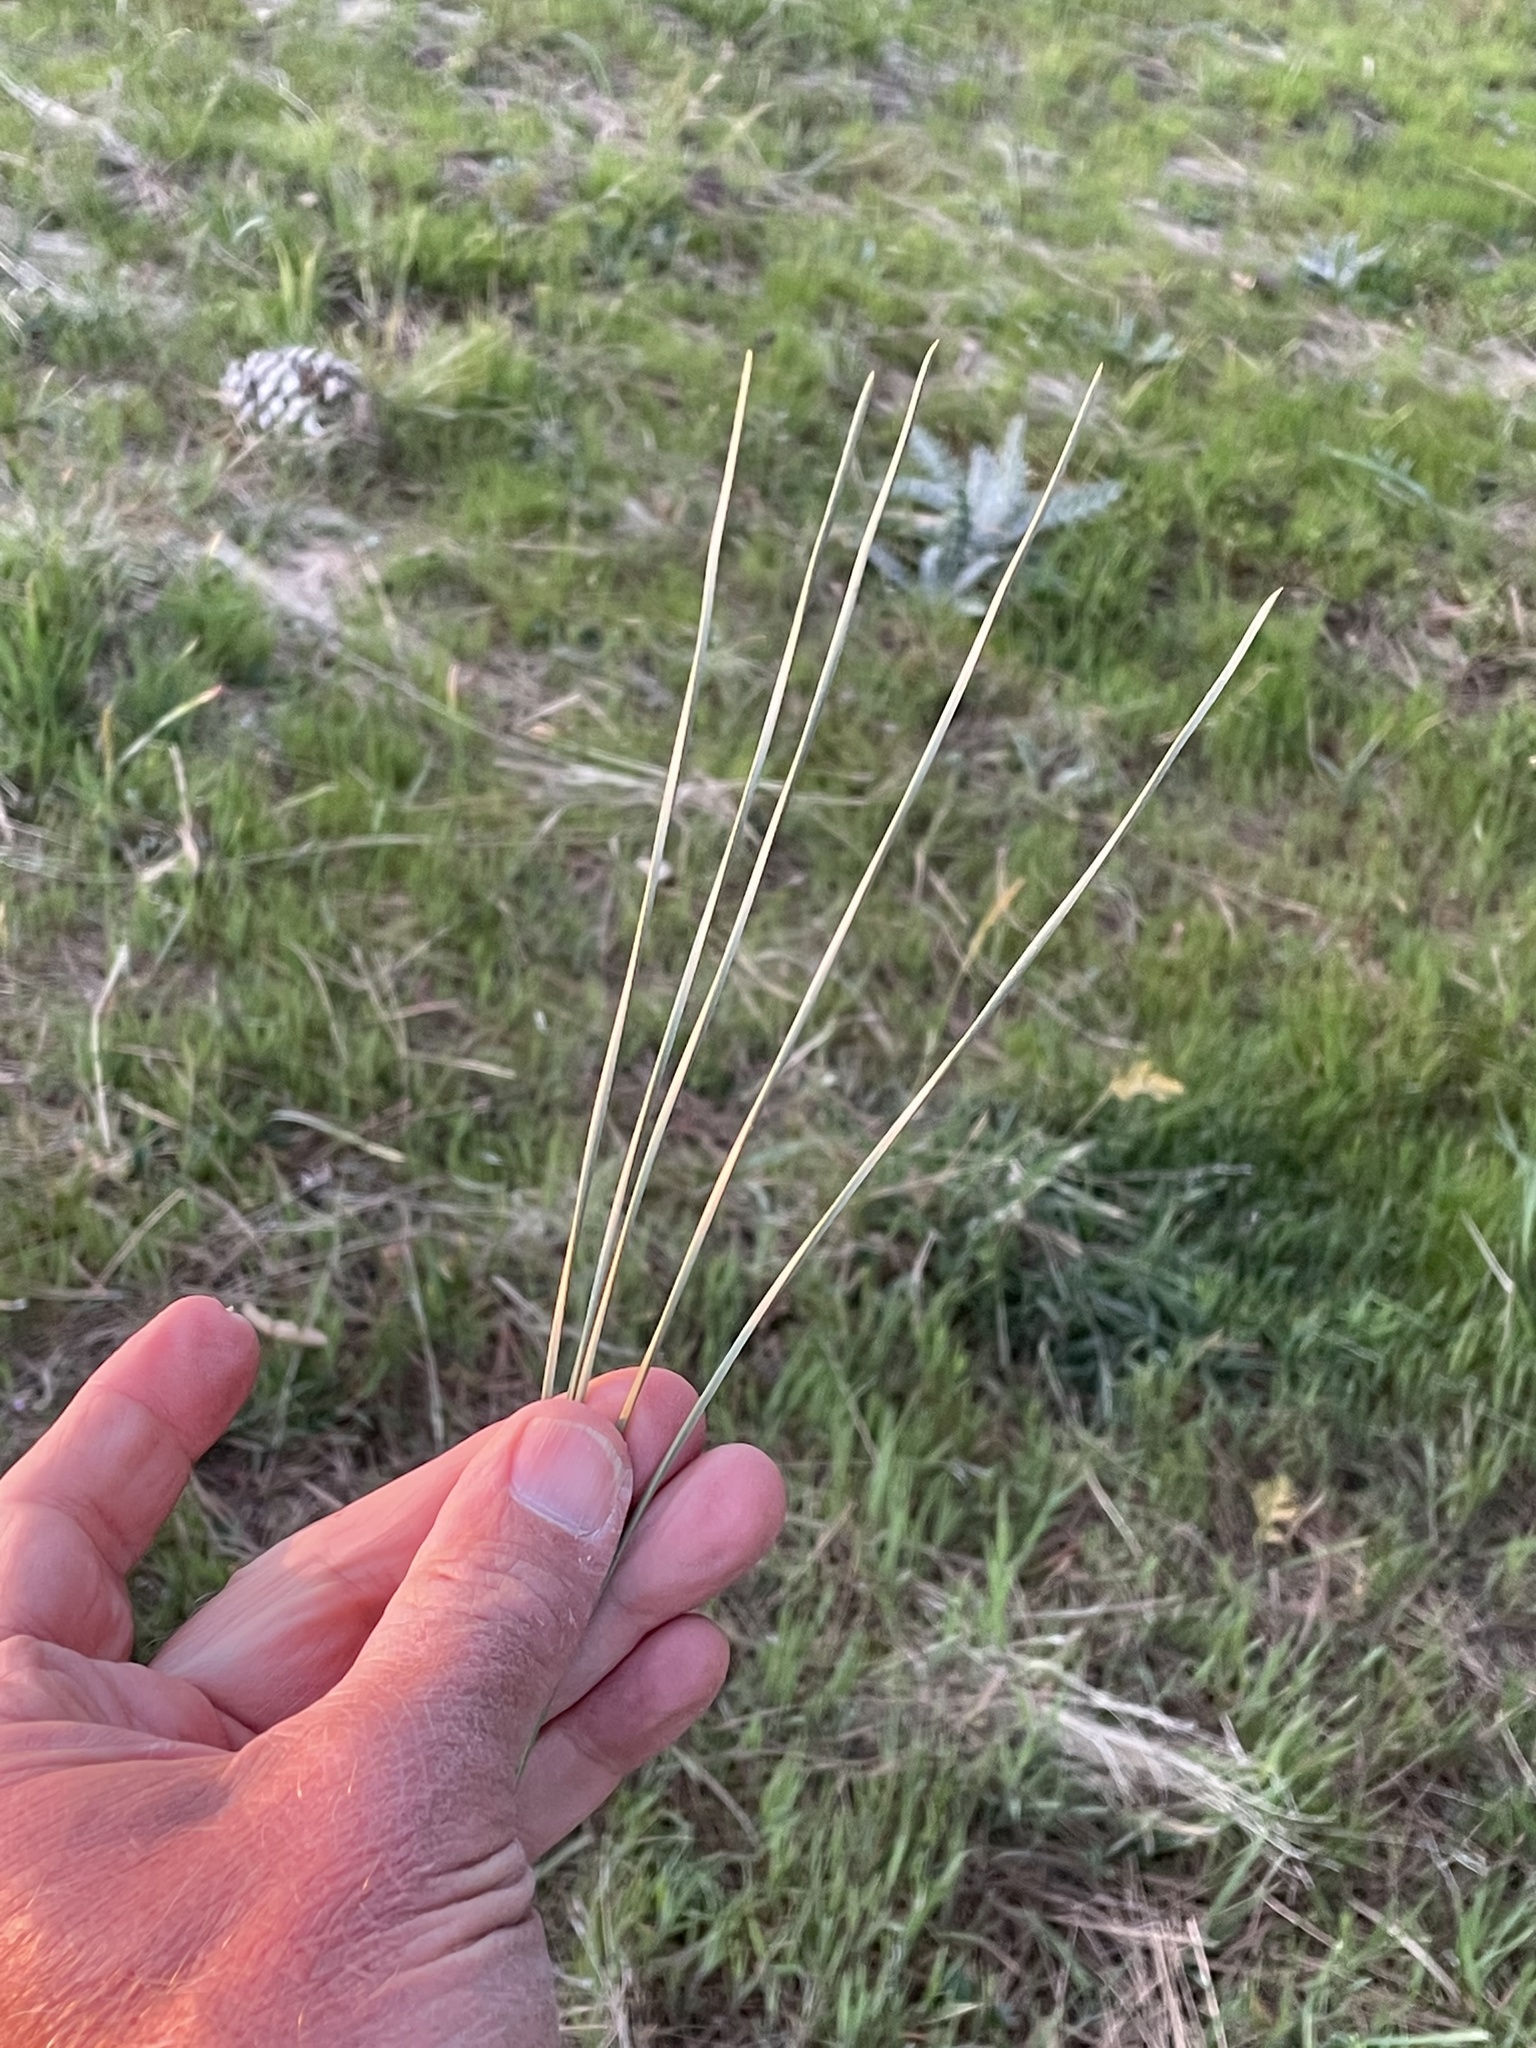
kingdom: Plantae
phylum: Tracheophyta
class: Pinopsida
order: Pinales
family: Pinaceae
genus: Pinus
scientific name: Pinus sabiniana
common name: Bull pine
